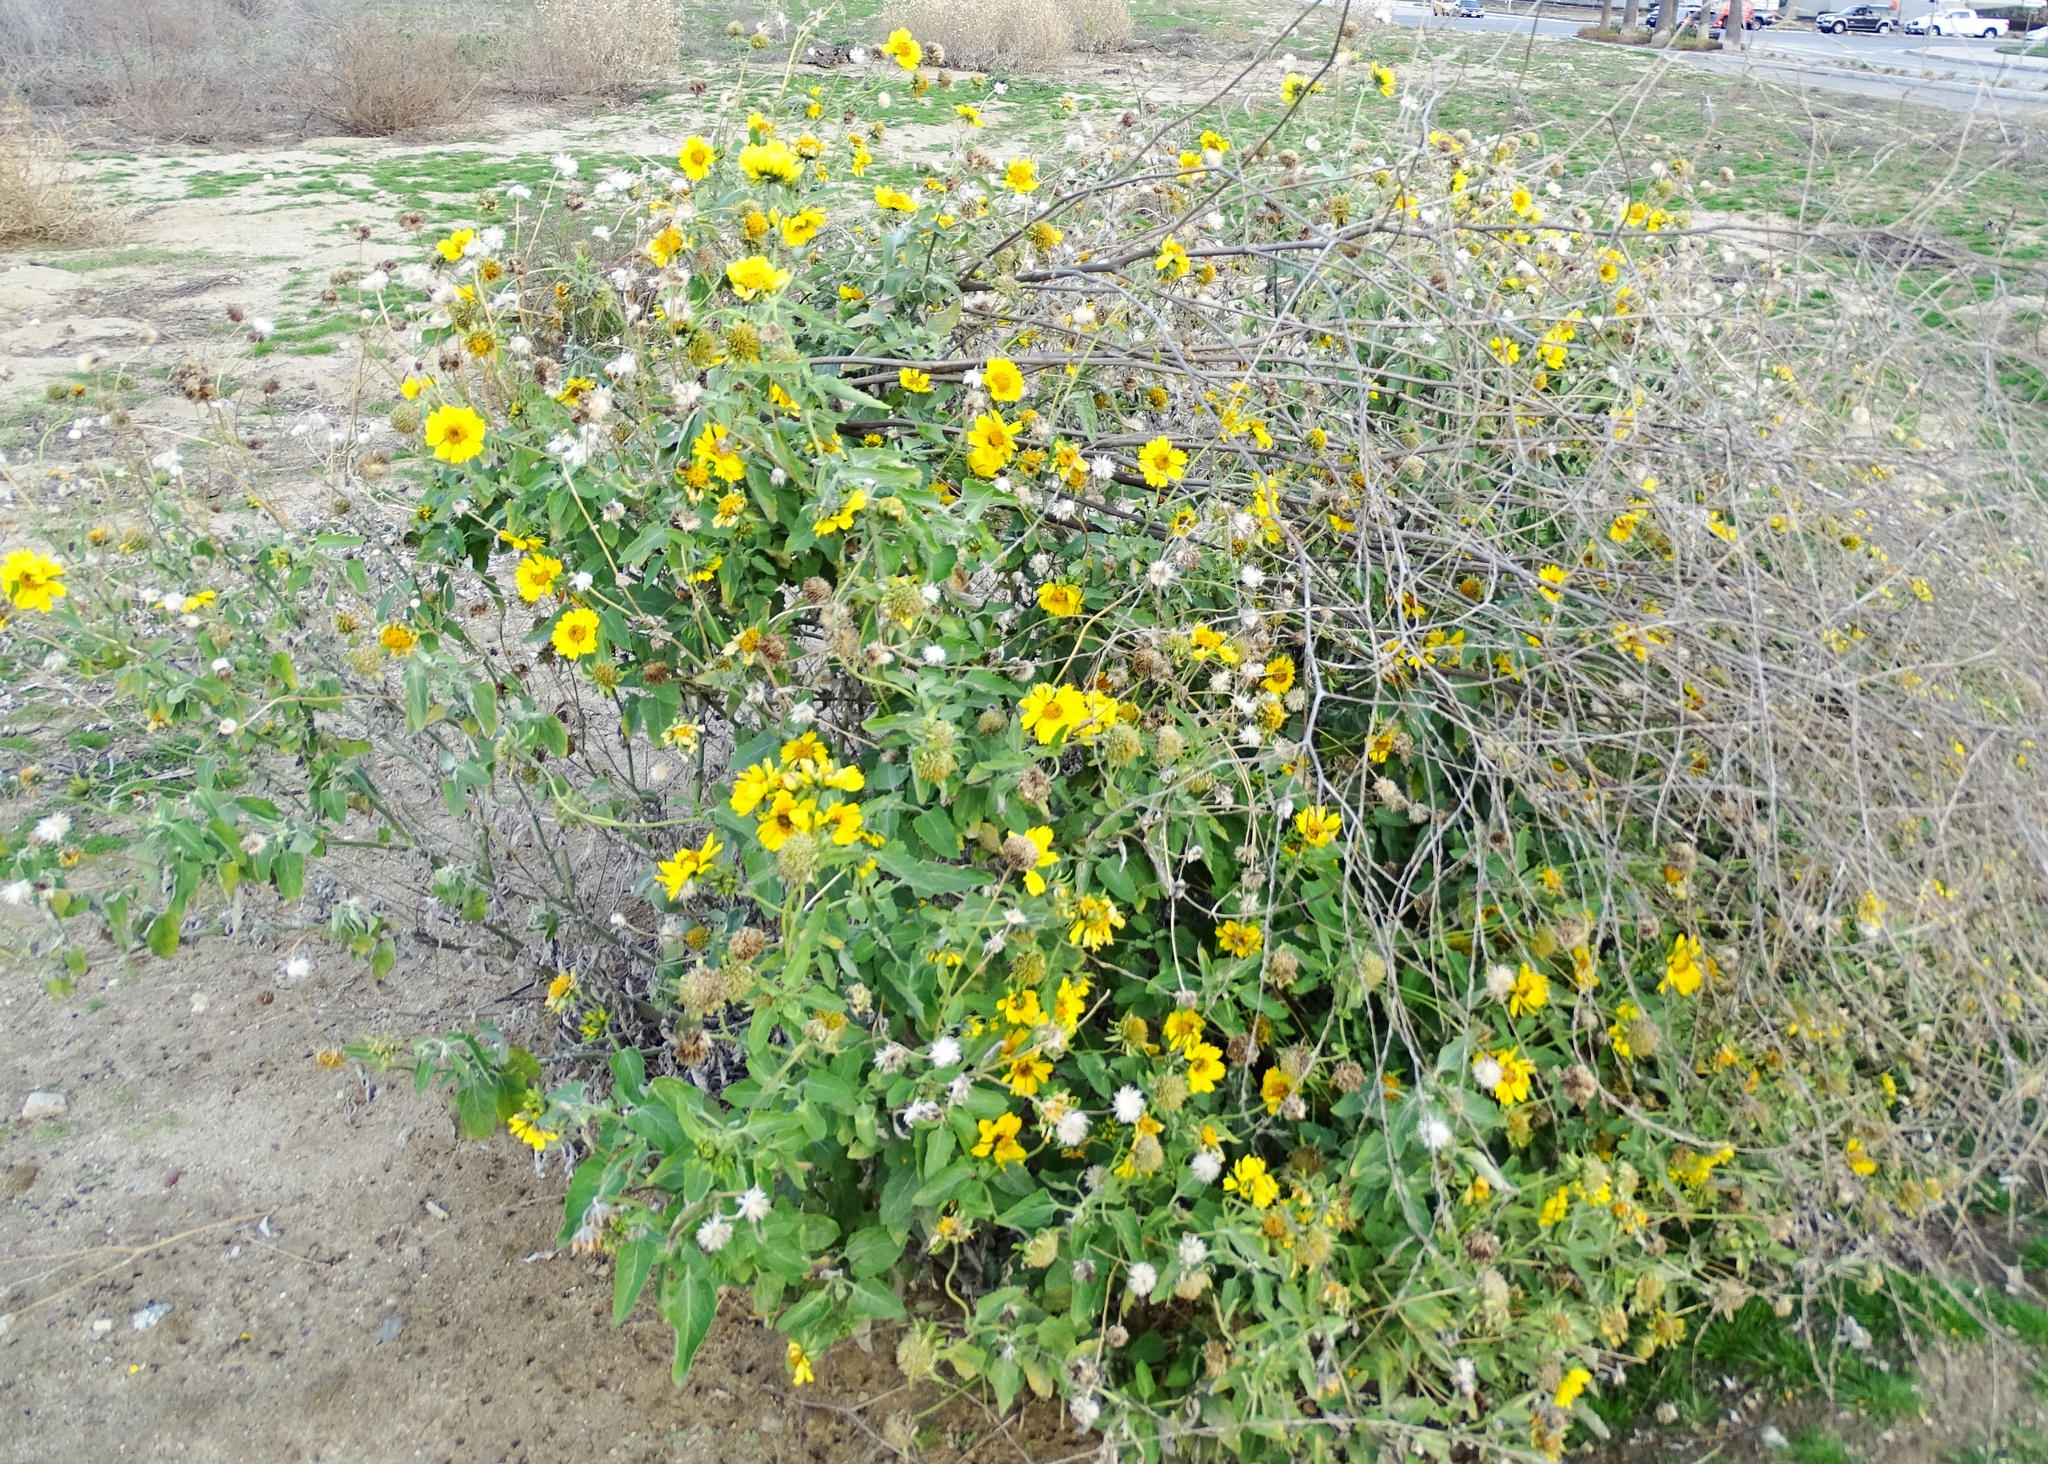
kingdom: Plantae
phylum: Tracheophyta
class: Magnoliopsida
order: Asterales
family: Asteraceae
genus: Verbesina
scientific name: Verbesina encelioides
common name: Golden crownbeard
